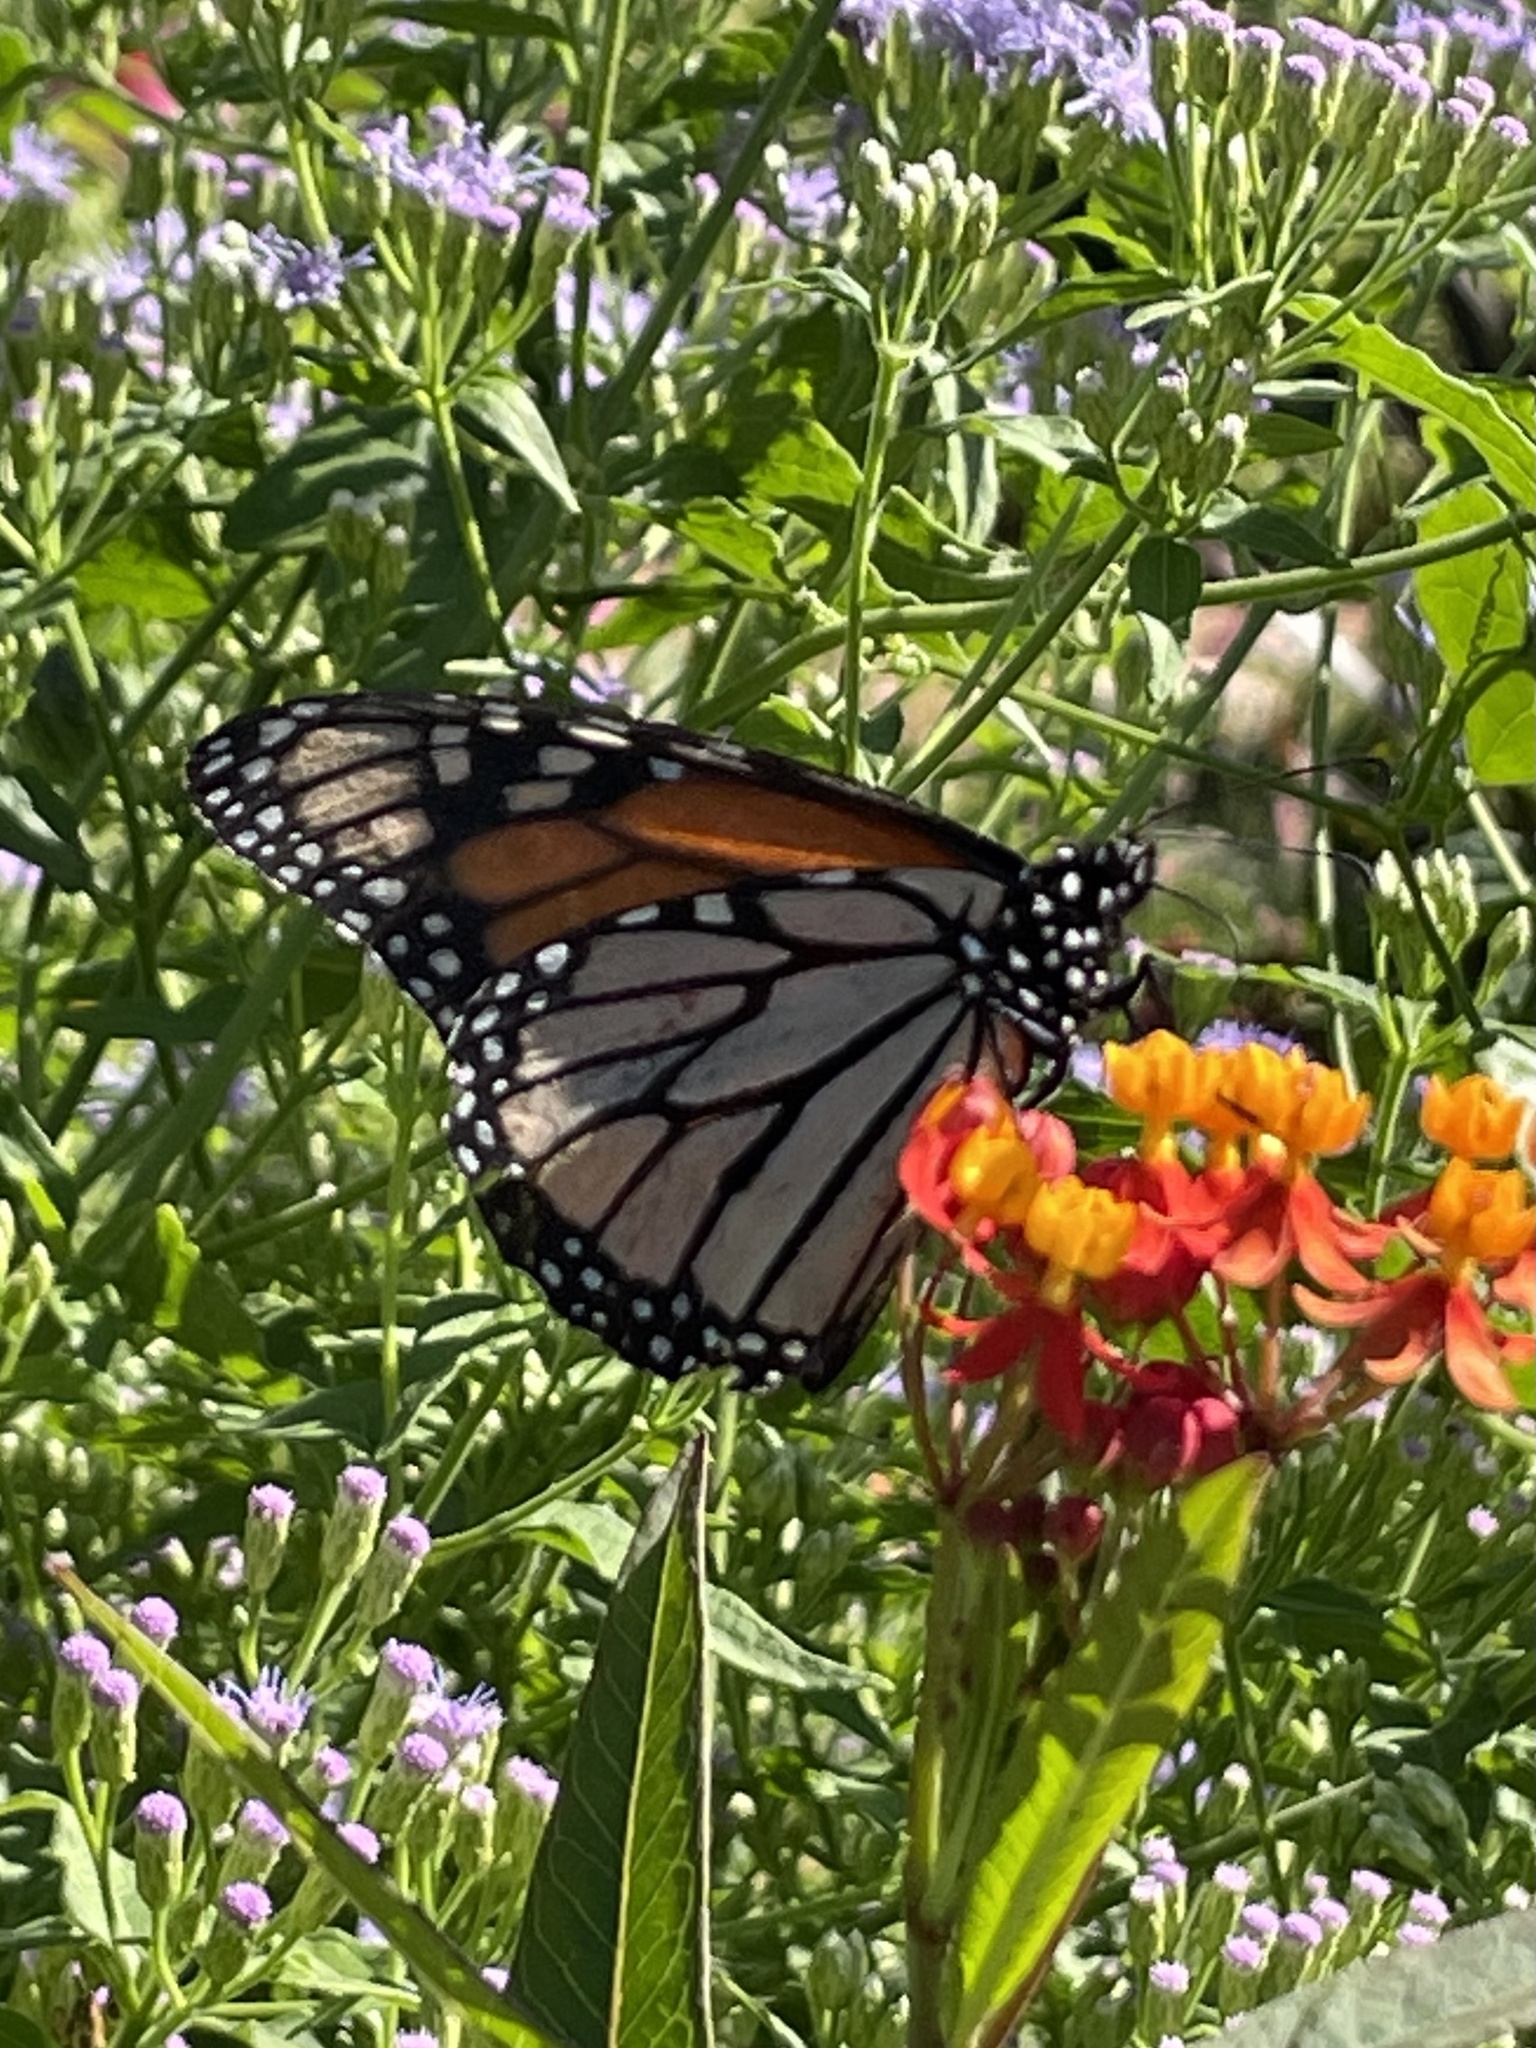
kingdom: Animalia
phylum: Arthropoda
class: Insecta
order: Lepidoptera
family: Nymphalidae
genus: Danaus
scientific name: Danaus plexippus
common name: Monarch
